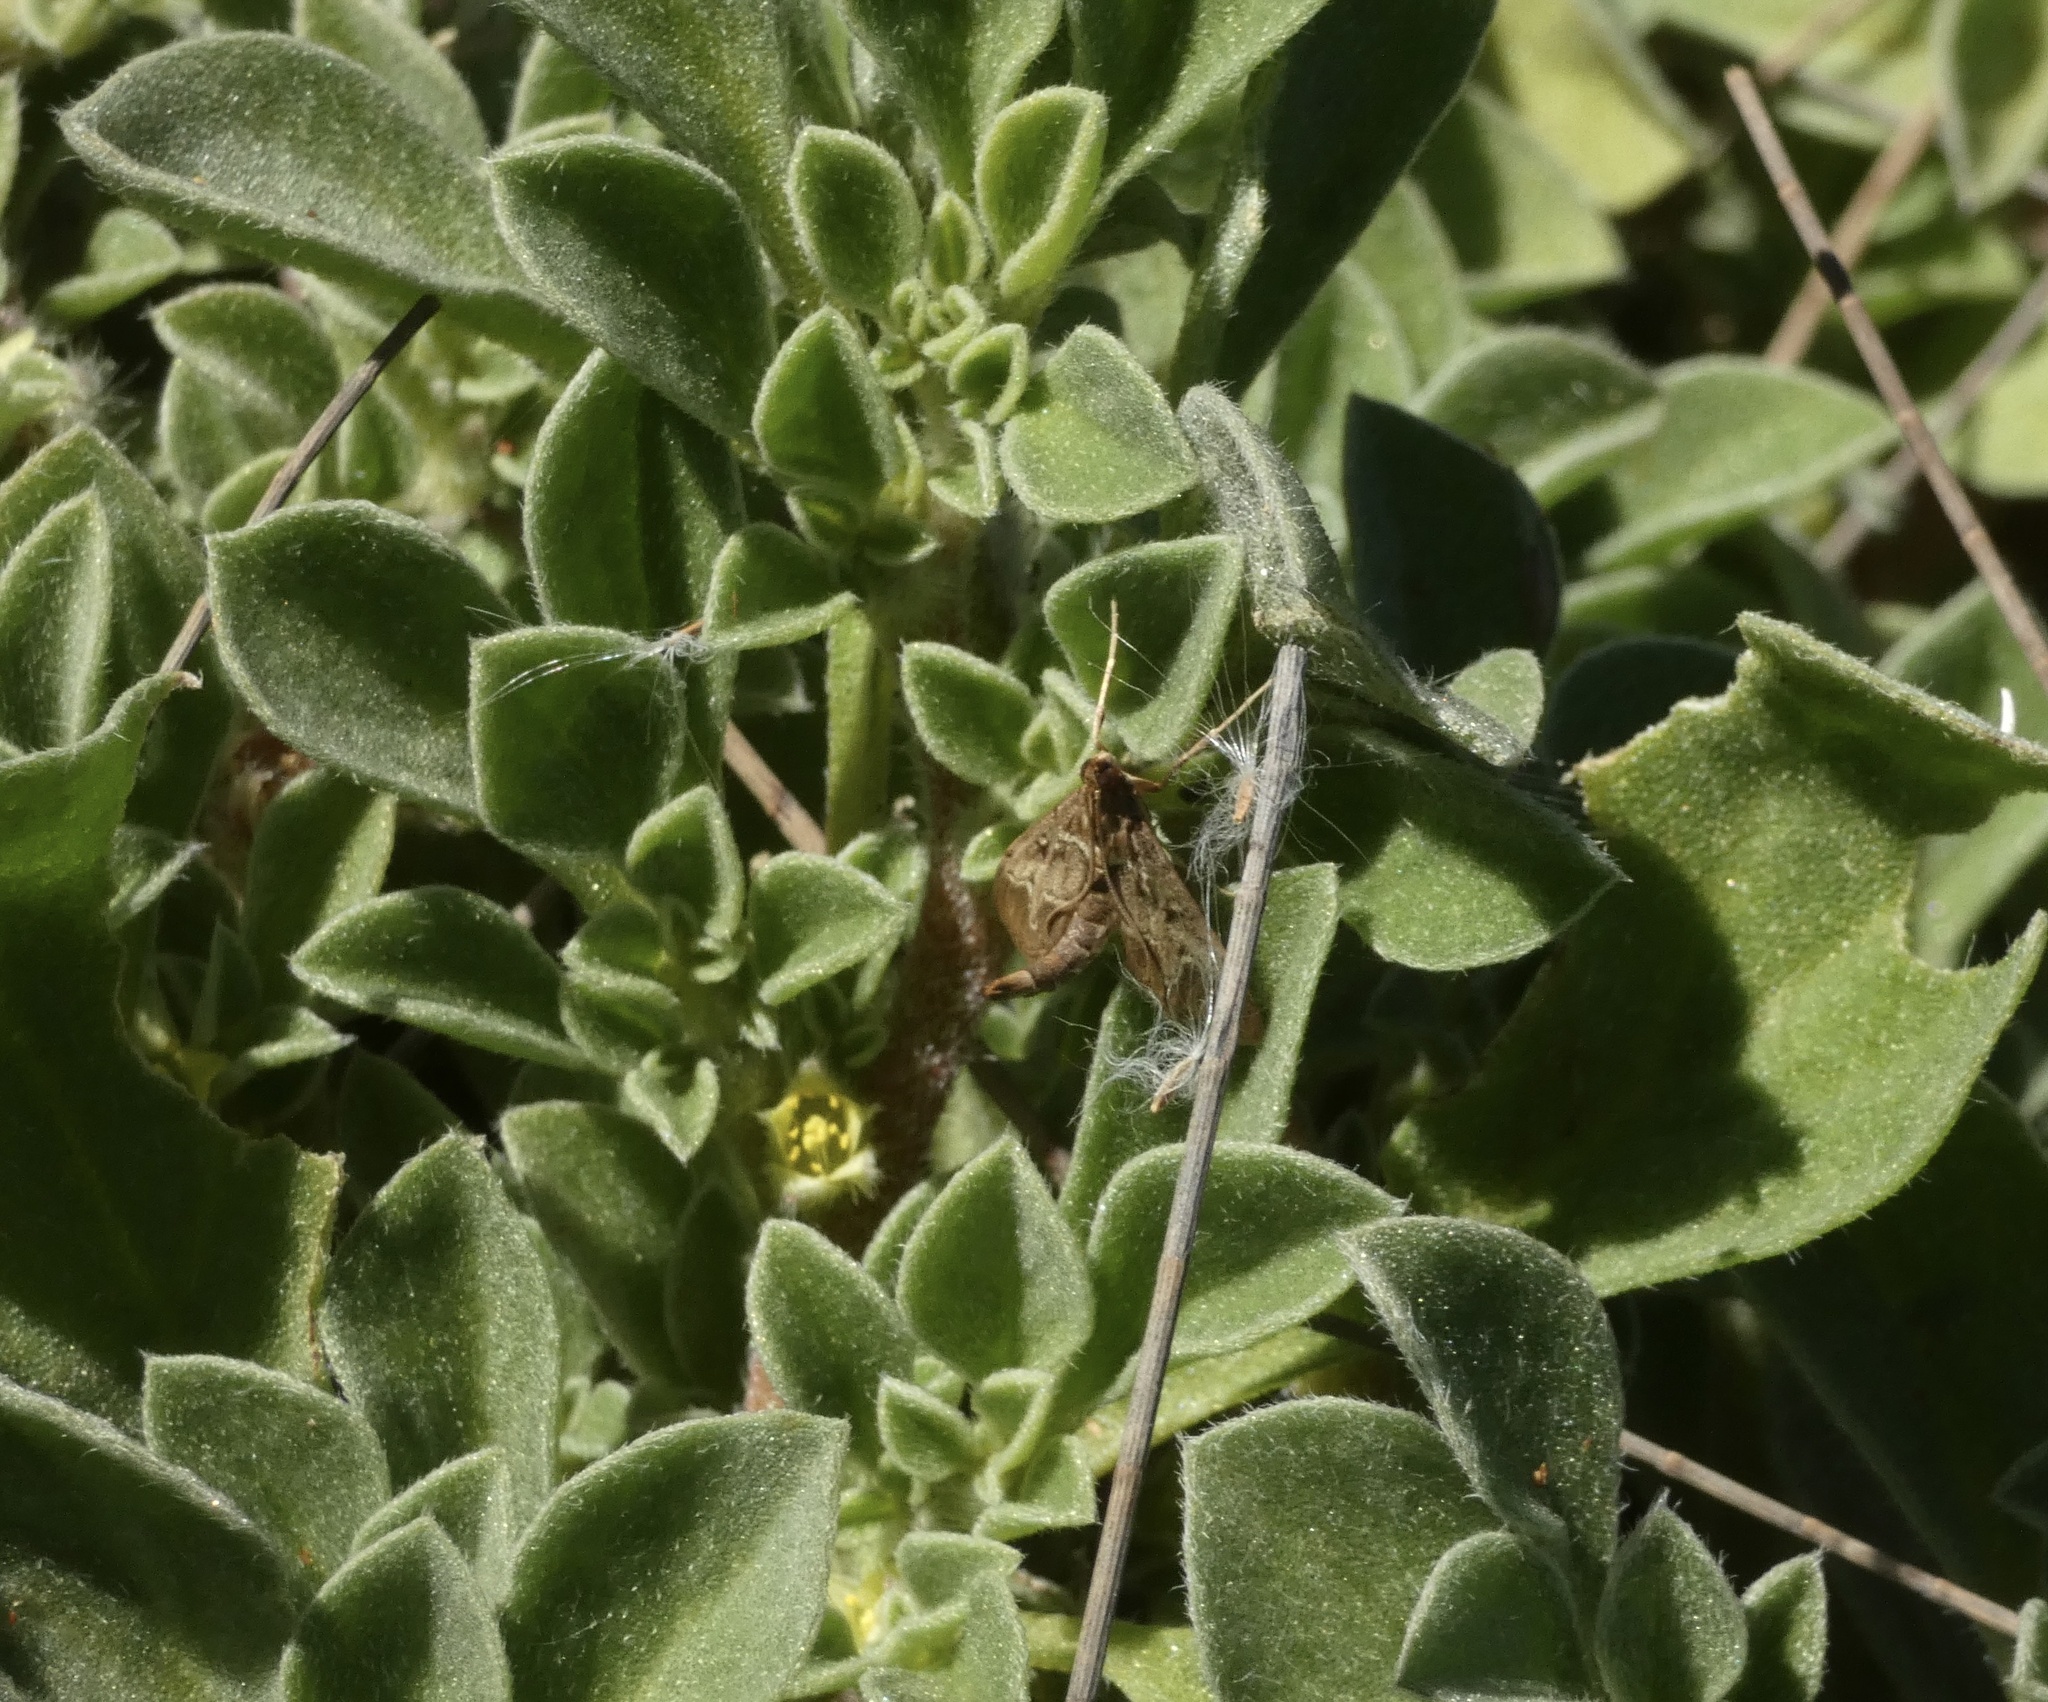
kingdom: Animalia
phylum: Arthropoda
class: Insecta
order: Lepidoptera
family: Crambidae
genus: Duponchelia
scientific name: Duponchelia fovealis
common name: Crambid moth
